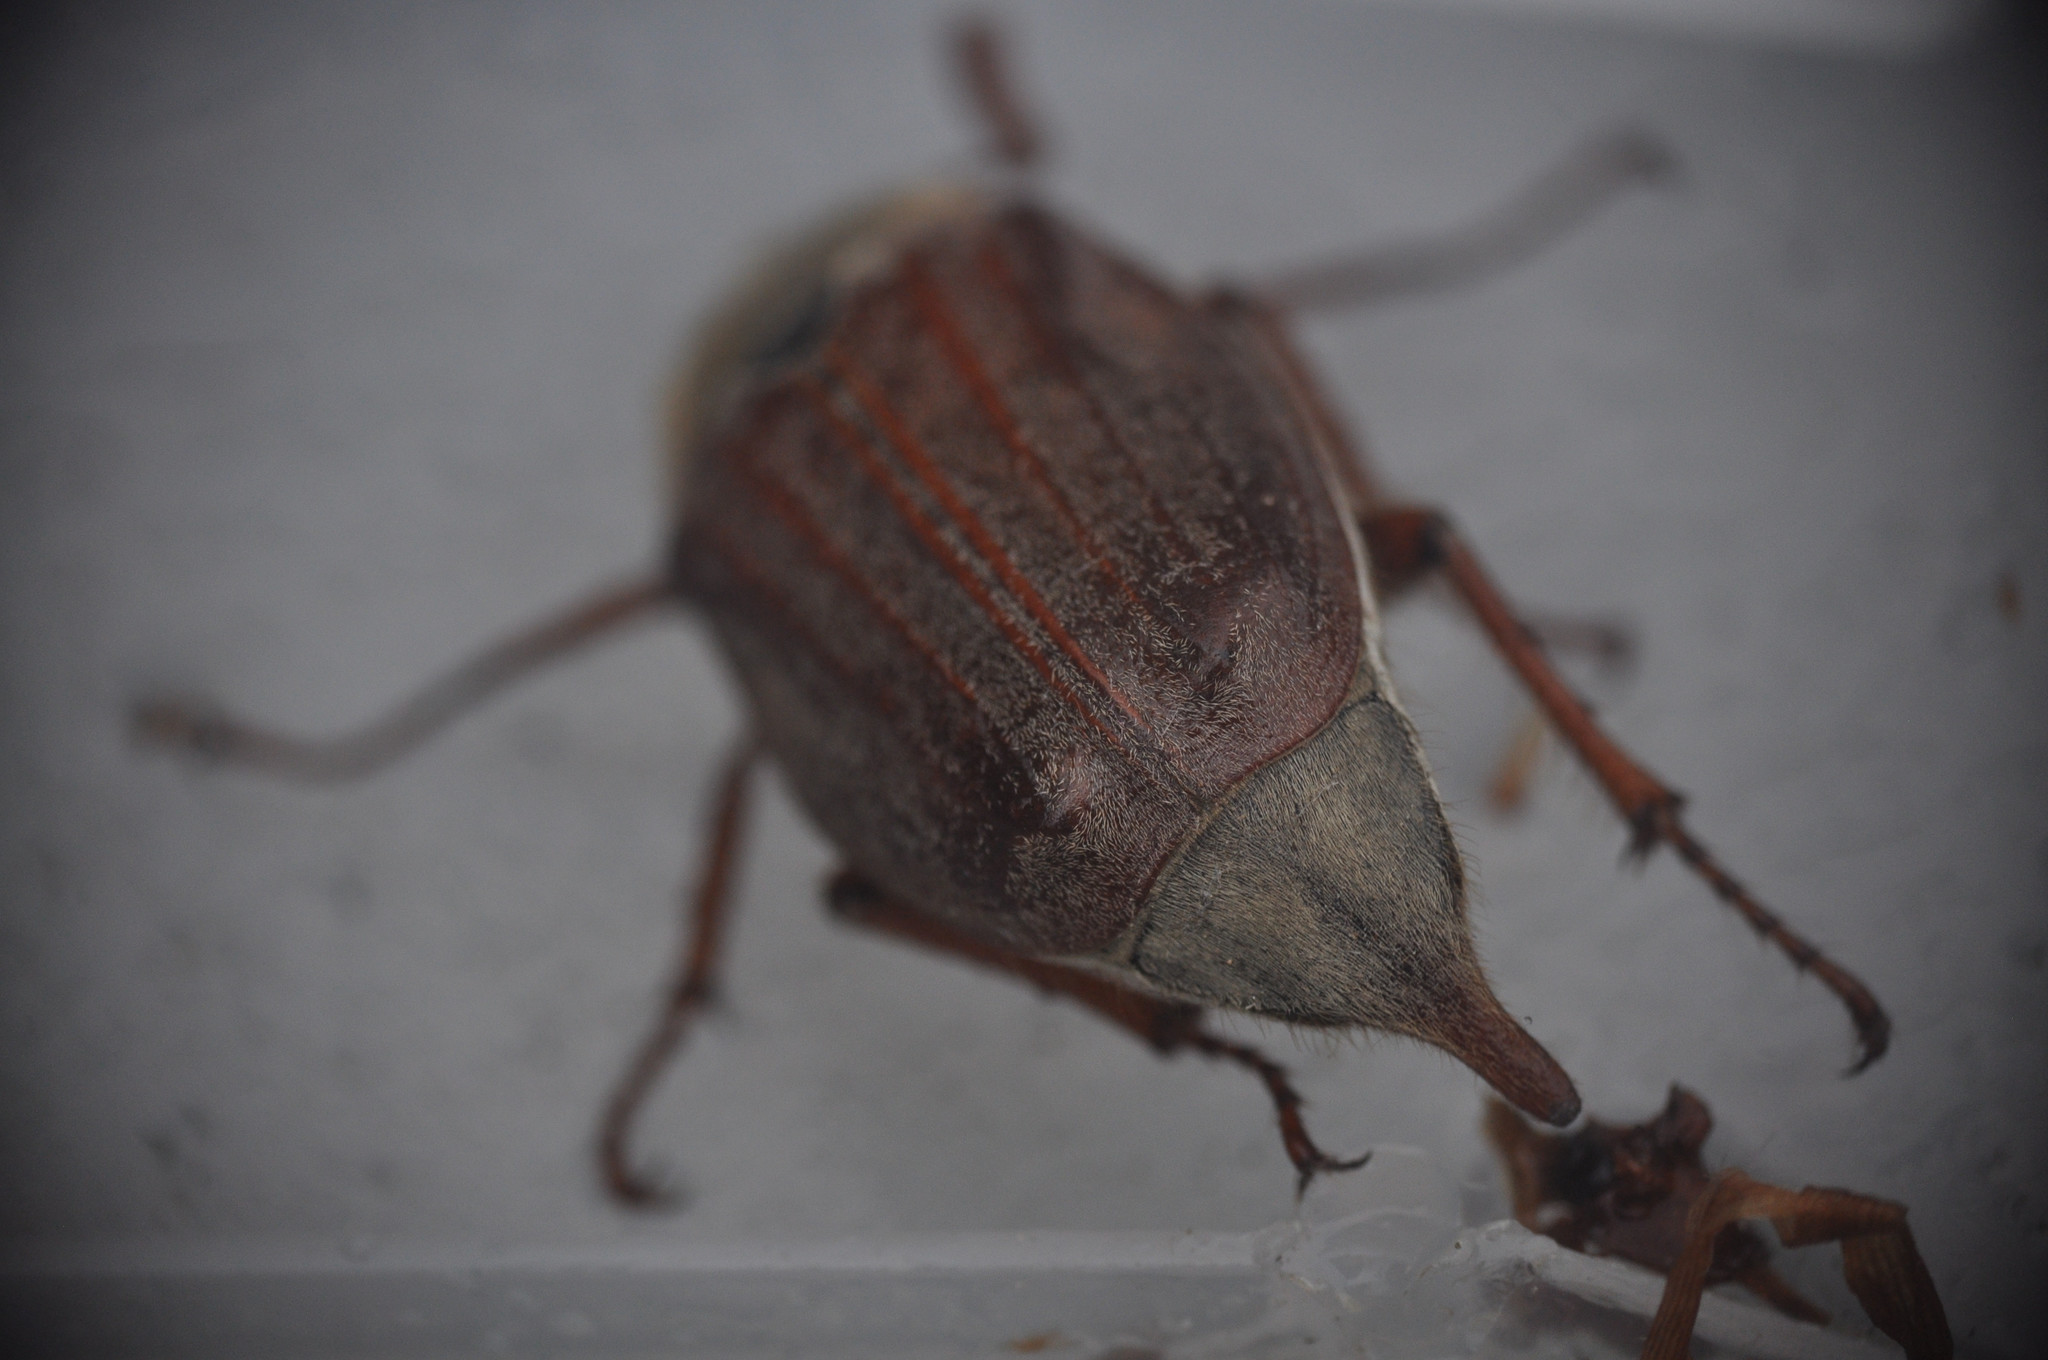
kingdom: Animalia
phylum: Arthropoda
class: Insecta
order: Coleoptera
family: Scarabaeidae
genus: Melolontha
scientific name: Melolontha melolontha
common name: Cockchafer maybeetle
